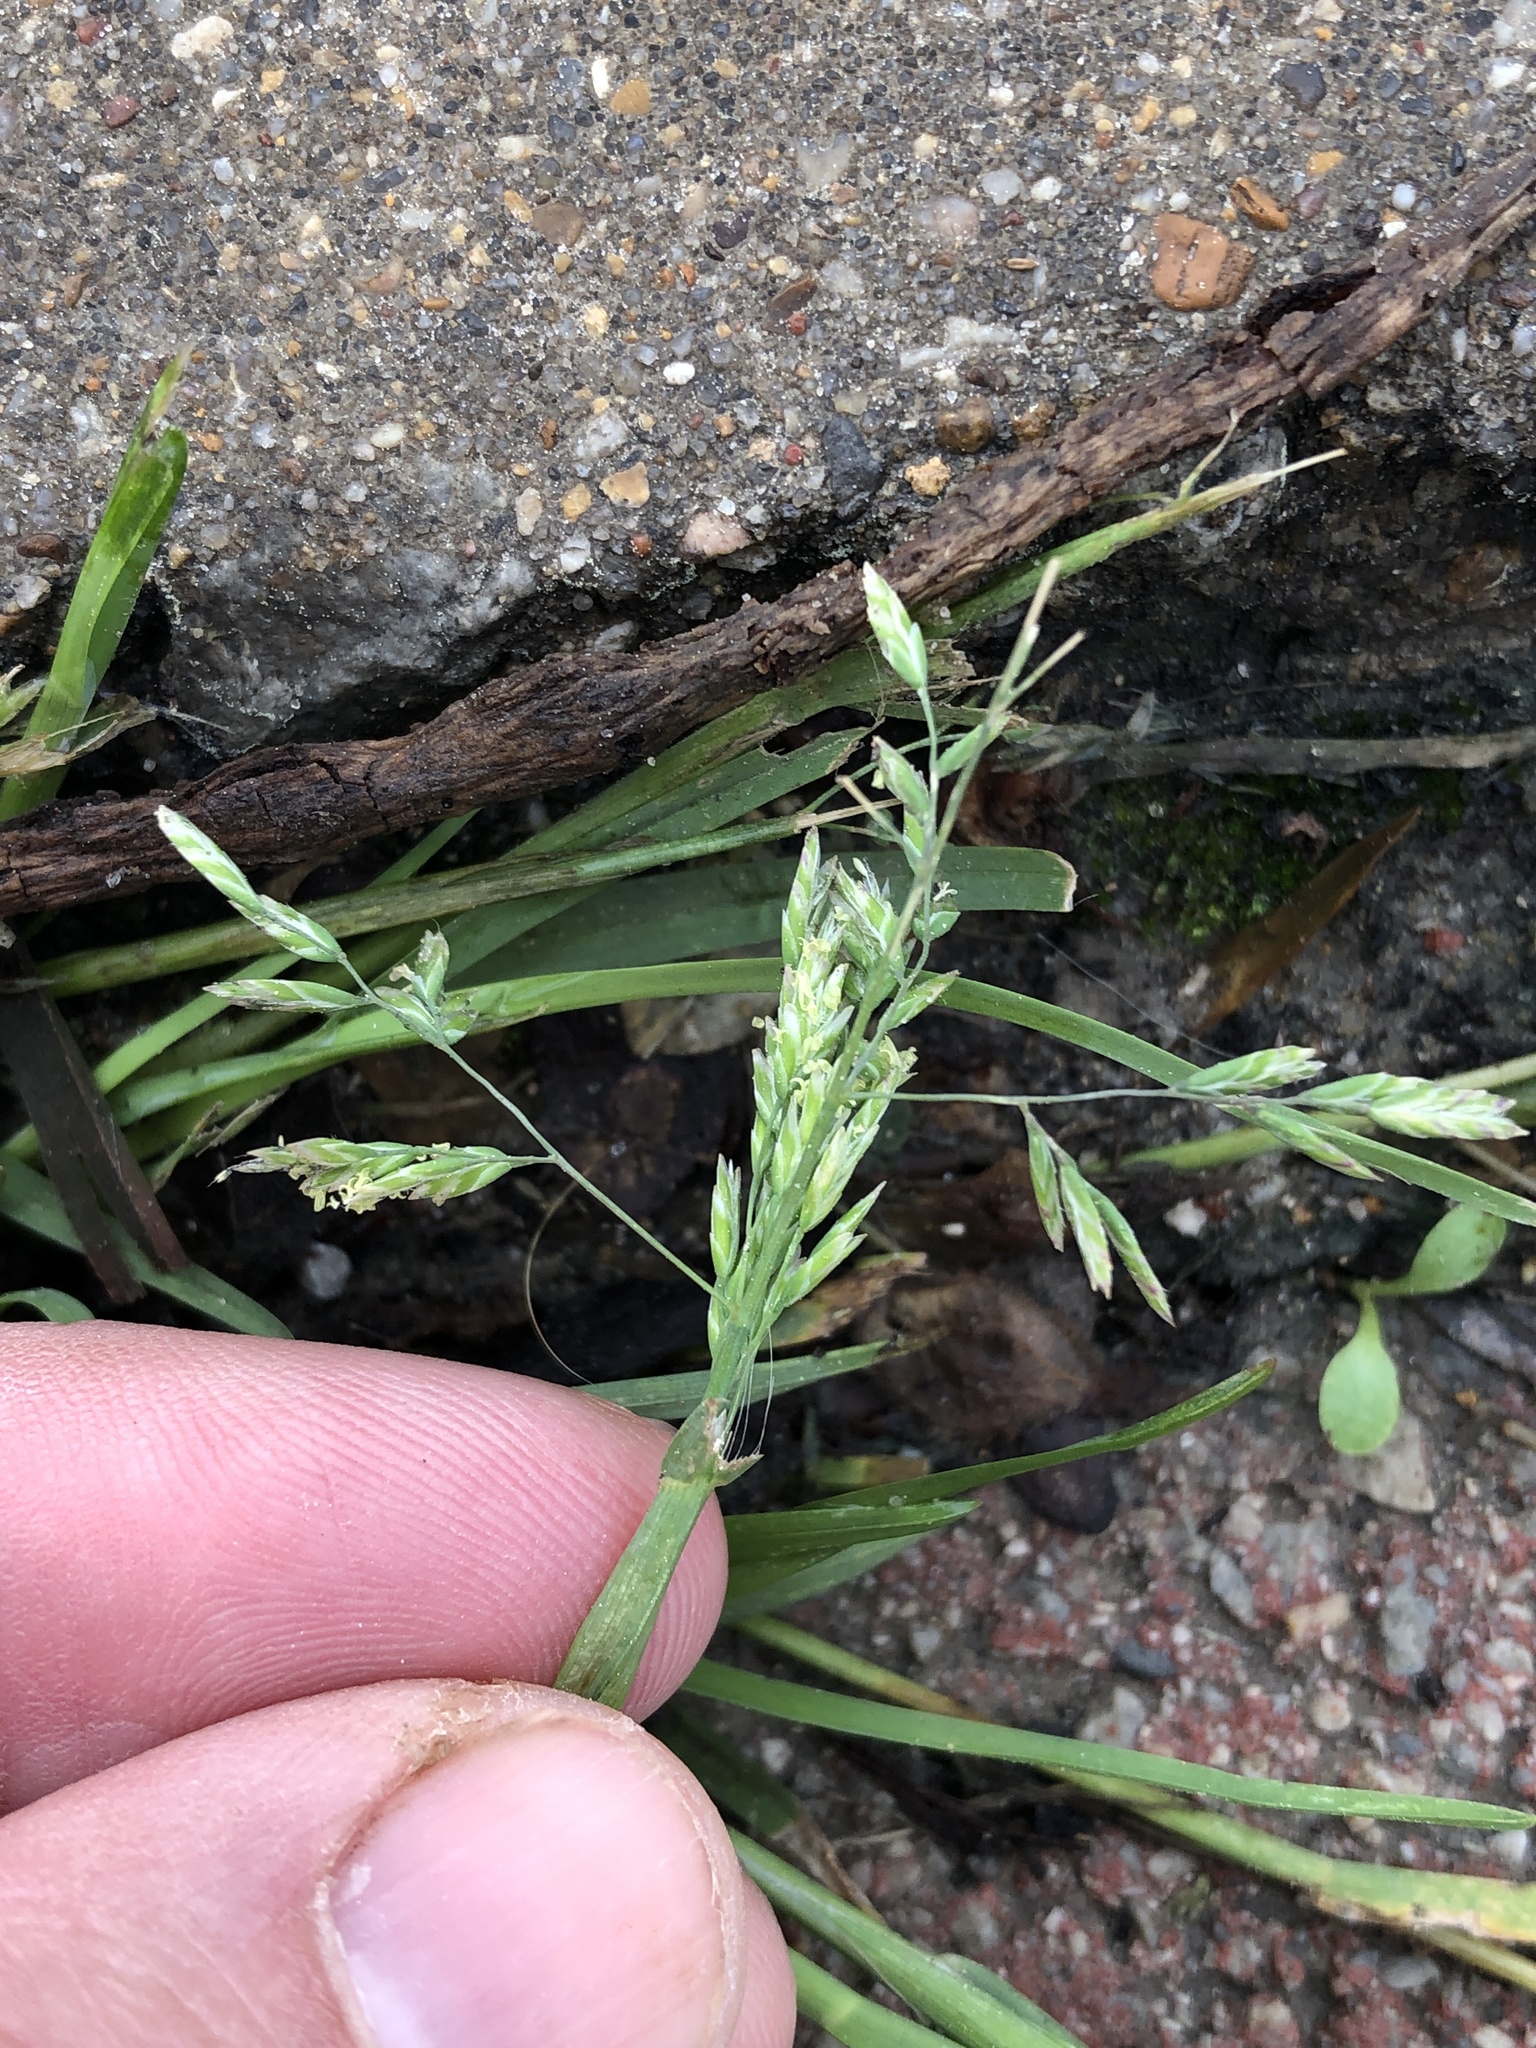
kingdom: Plantae
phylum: Tracheophyta
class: Liliopsida
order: Poales
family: Poaceae
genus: Poa
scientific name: Poa annua
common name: Annual bluegrass
